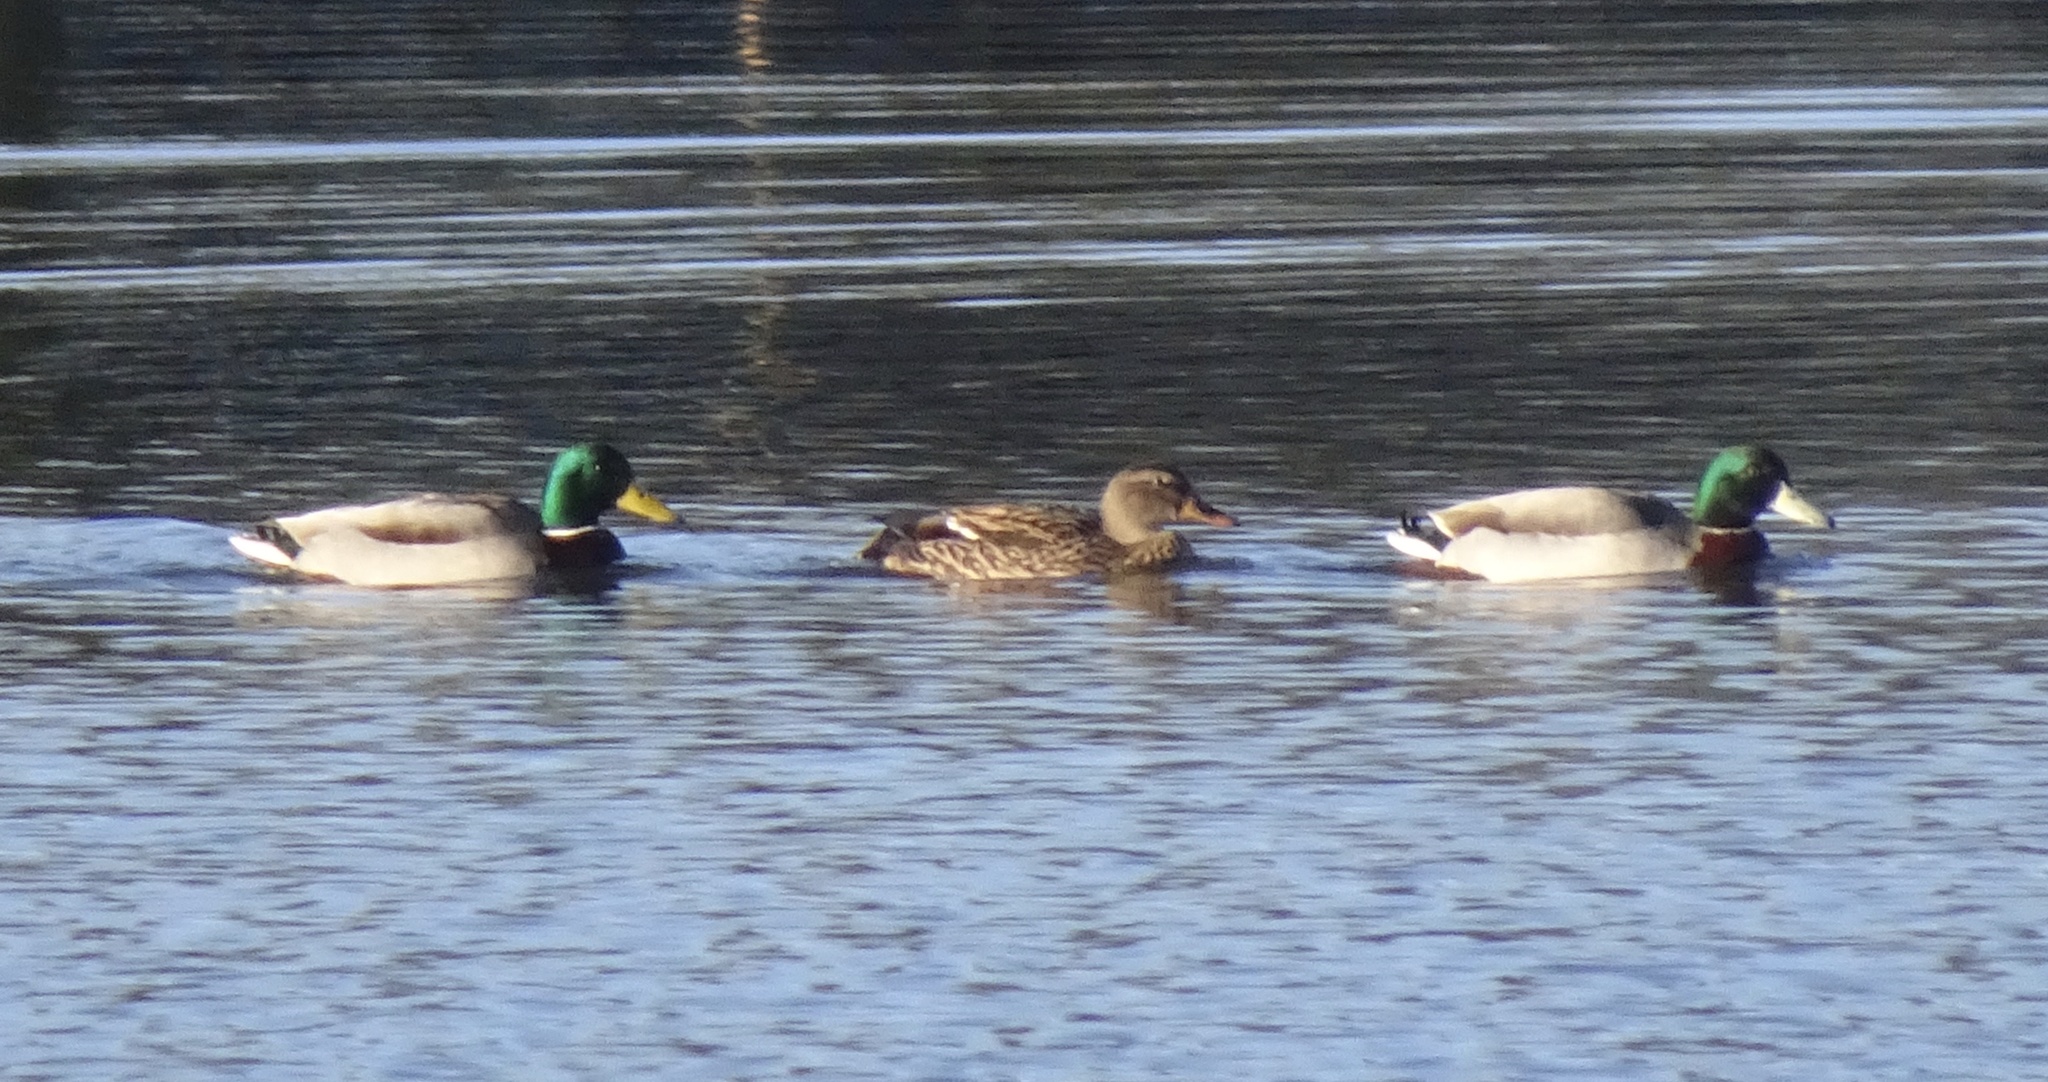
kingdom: Animalia
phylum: Chordata
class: Aves
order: Anseriformes
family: Anatidae
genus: Anas
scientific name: Anas platyrhynchos
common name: Mallard
